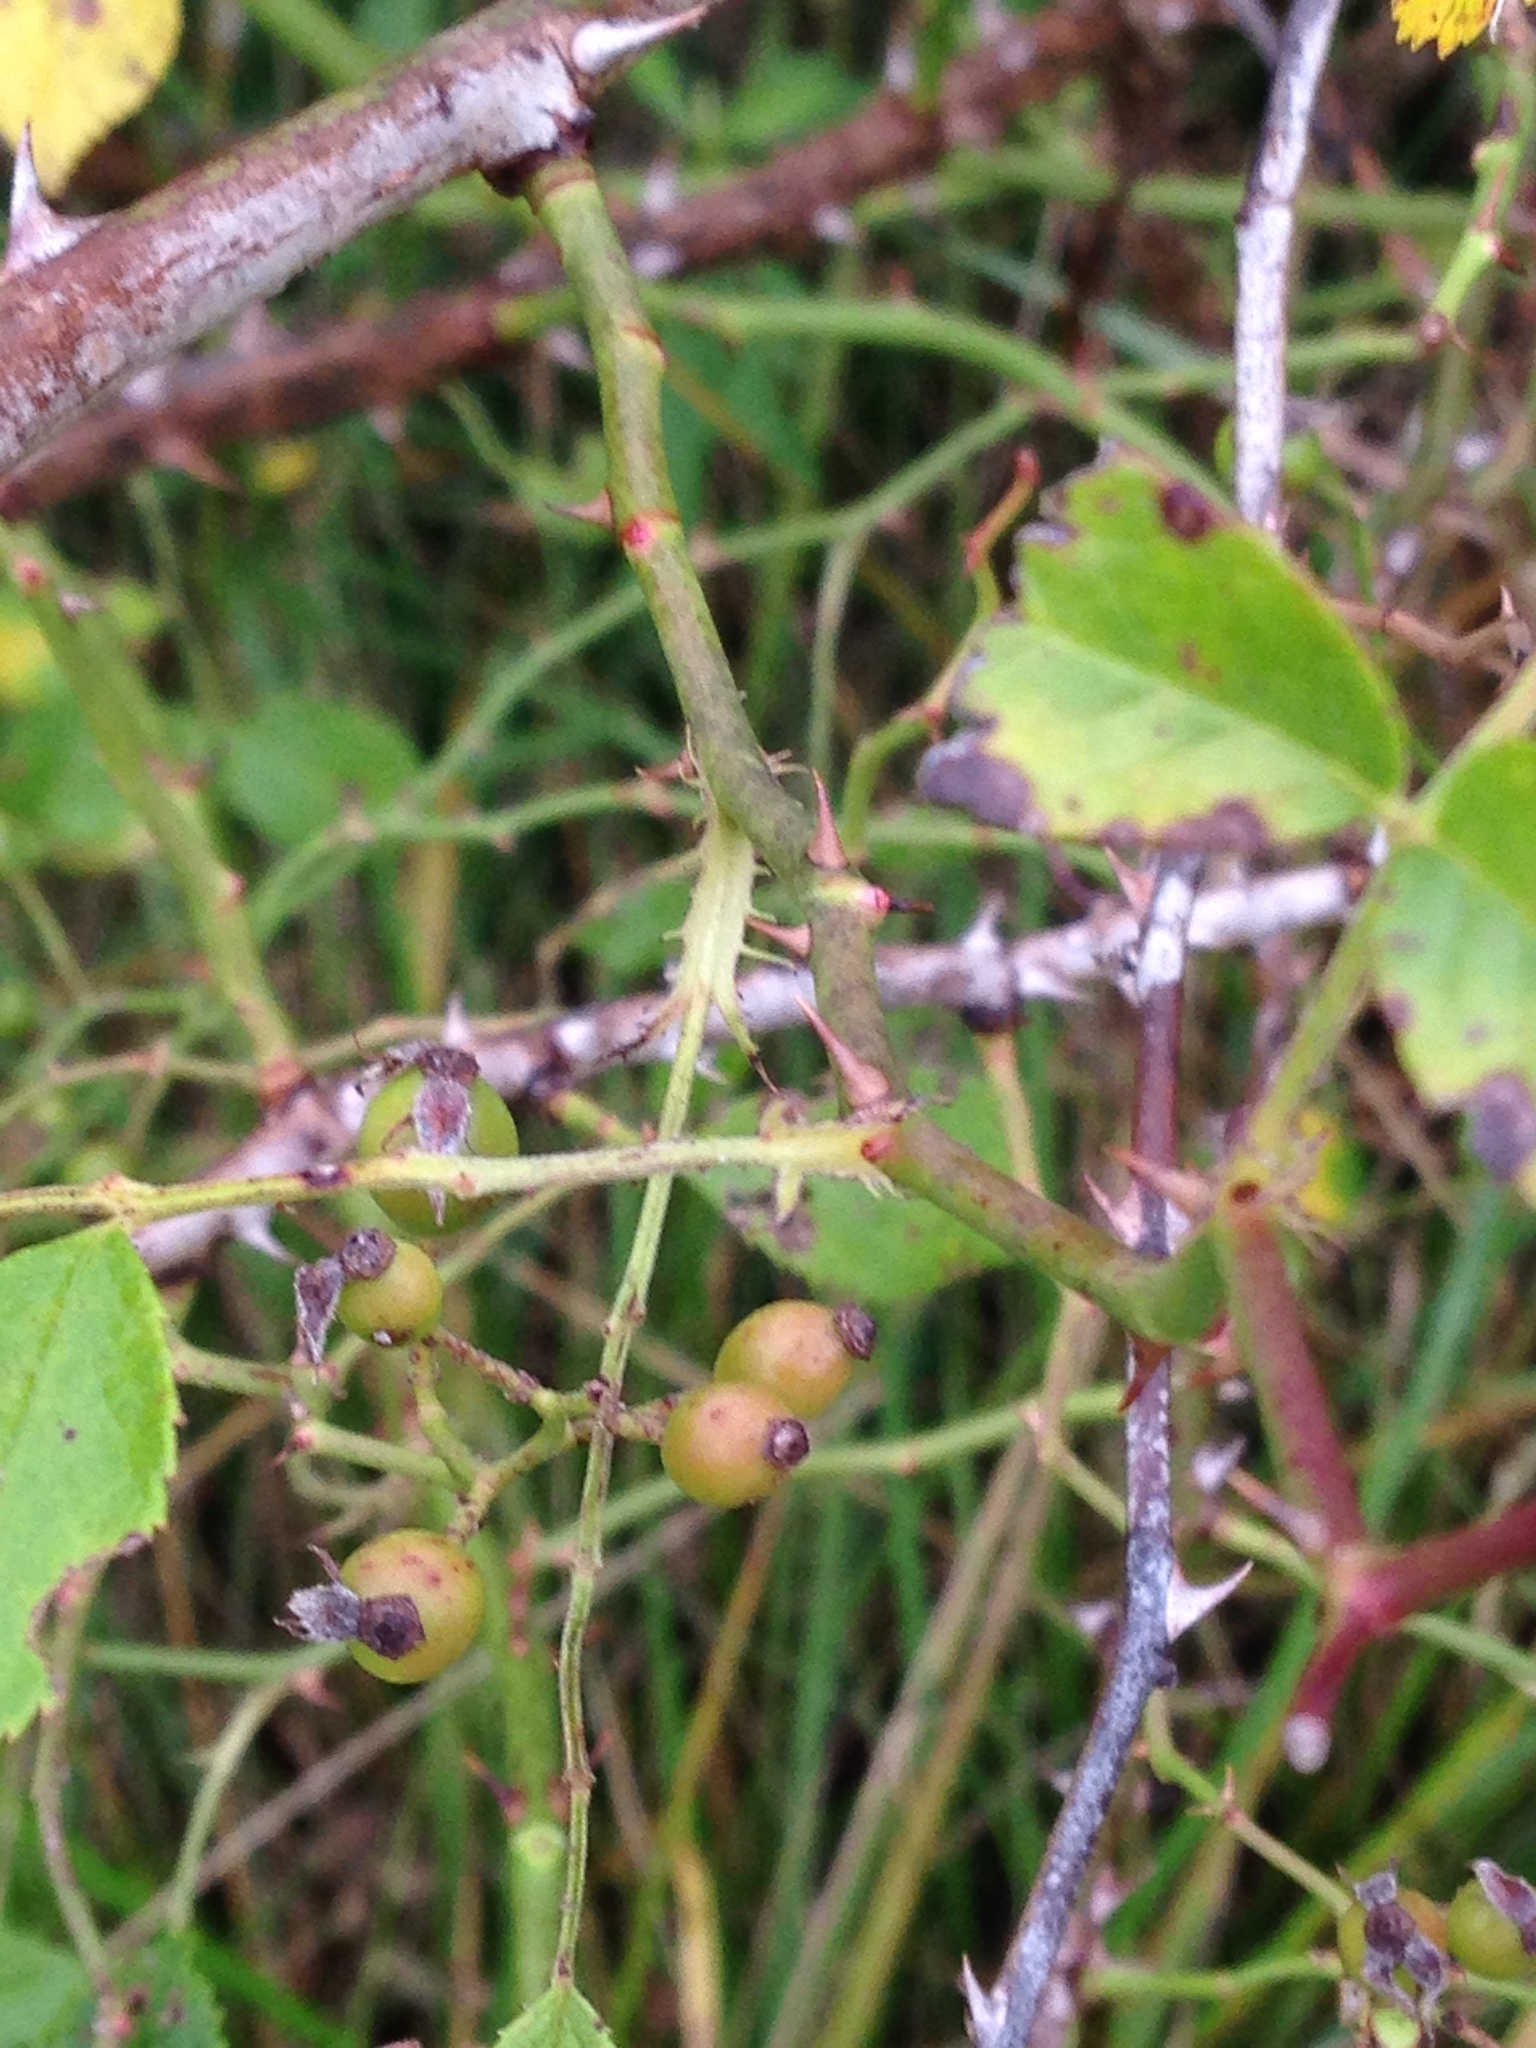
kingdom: Plantae
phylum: Tracheophyta
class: Magnoliopsida
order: Rosales
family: Rosaceae
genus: Rosa
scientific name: Rosa multiflora
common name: Multiflora rose
